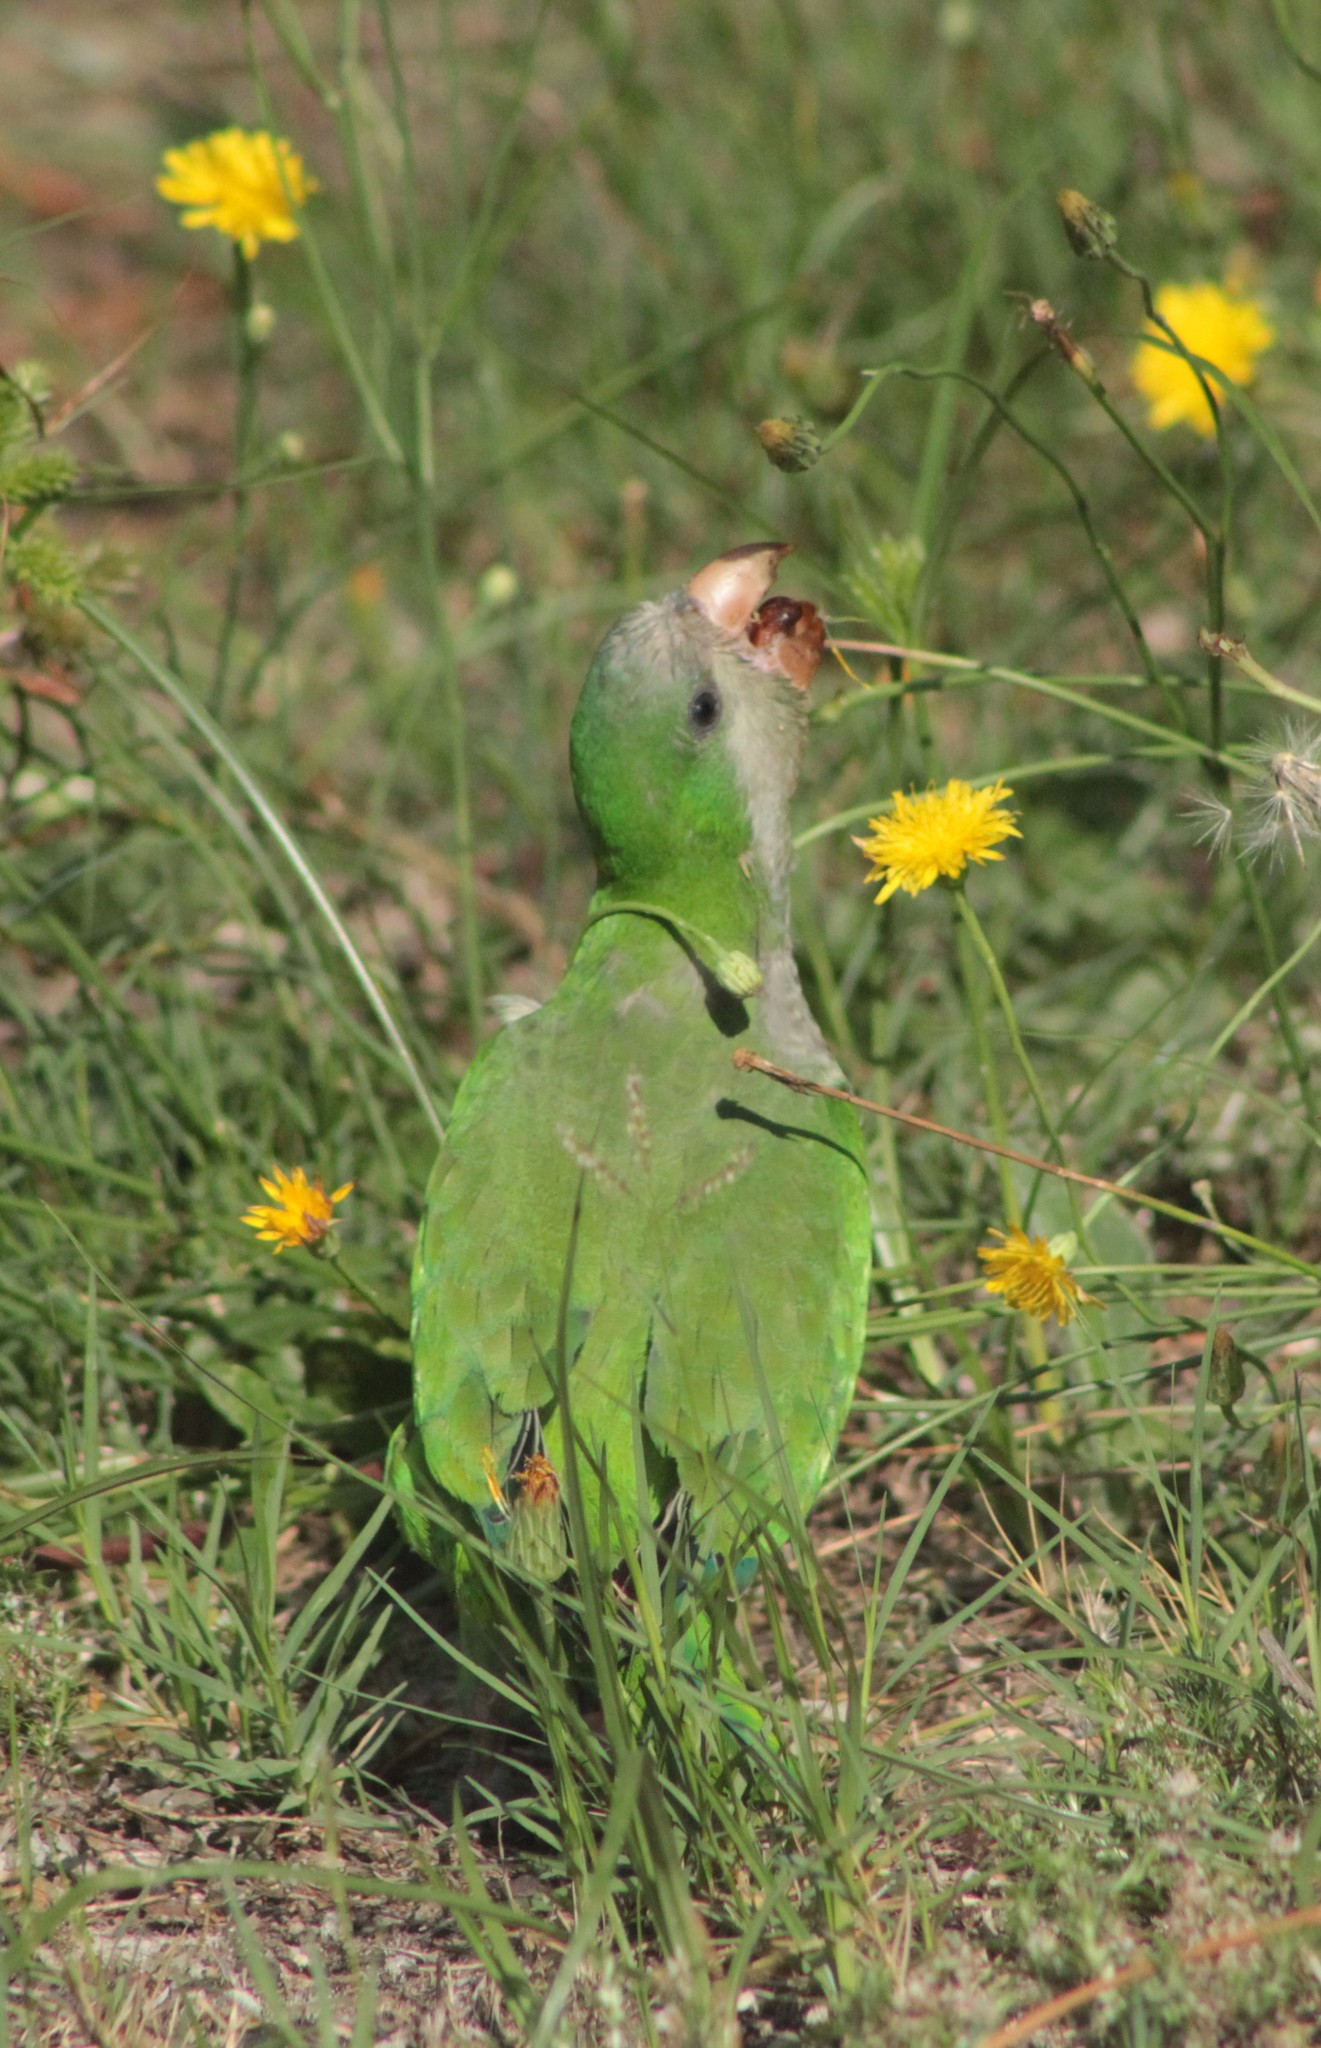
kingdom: Animalia
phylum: Chordata
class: Aves
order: Psittaciformes
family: Psittacidae
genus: Myiopsitta
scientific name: Myiopsitta monachus
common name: Monk parakeet
